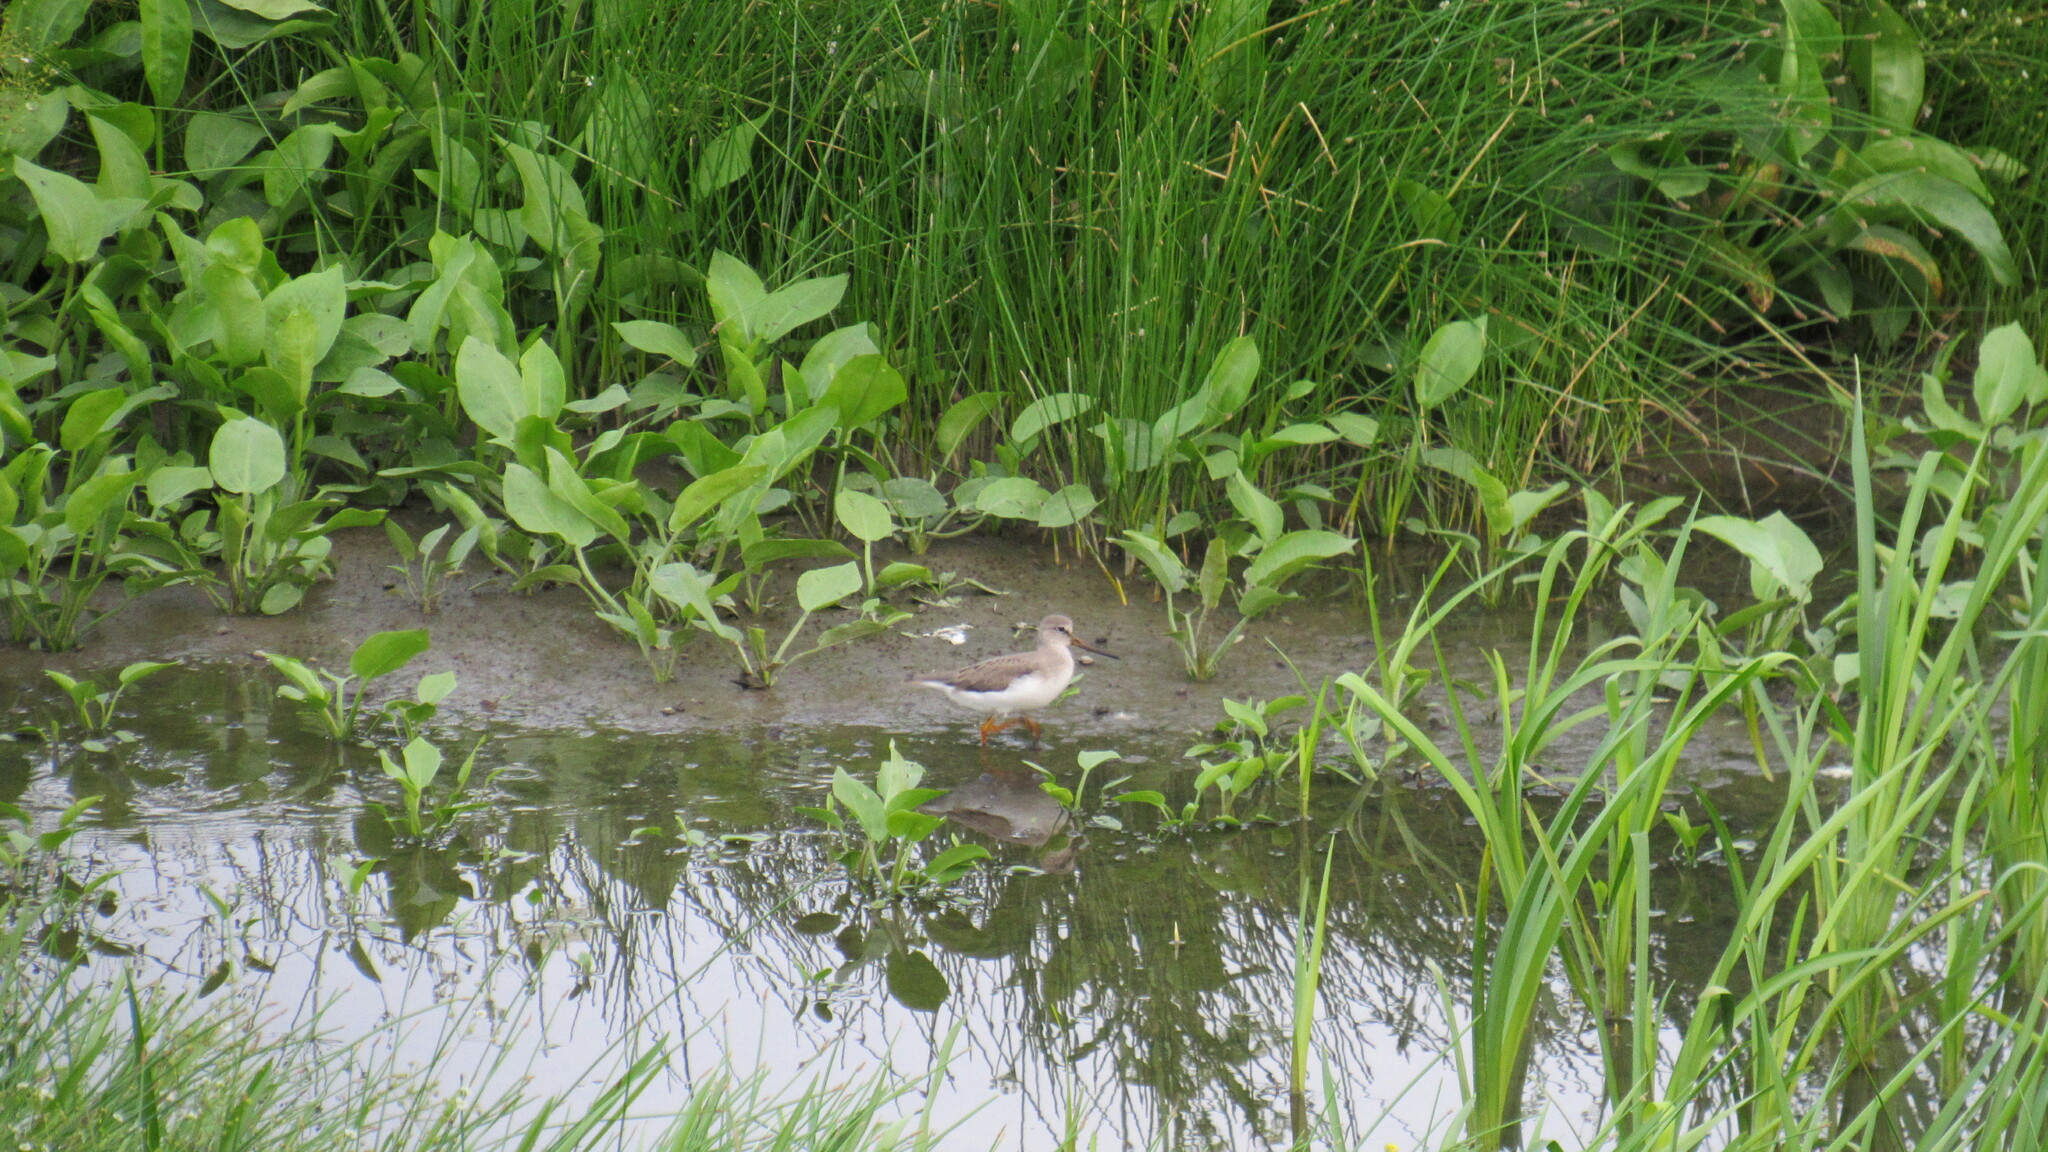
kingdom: Animalia
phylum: Chordata
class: Aves
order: Charadriiformes
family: Scolopacidae
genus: Xenus
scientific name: Xenus cinereus
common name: Terek sandpiper
